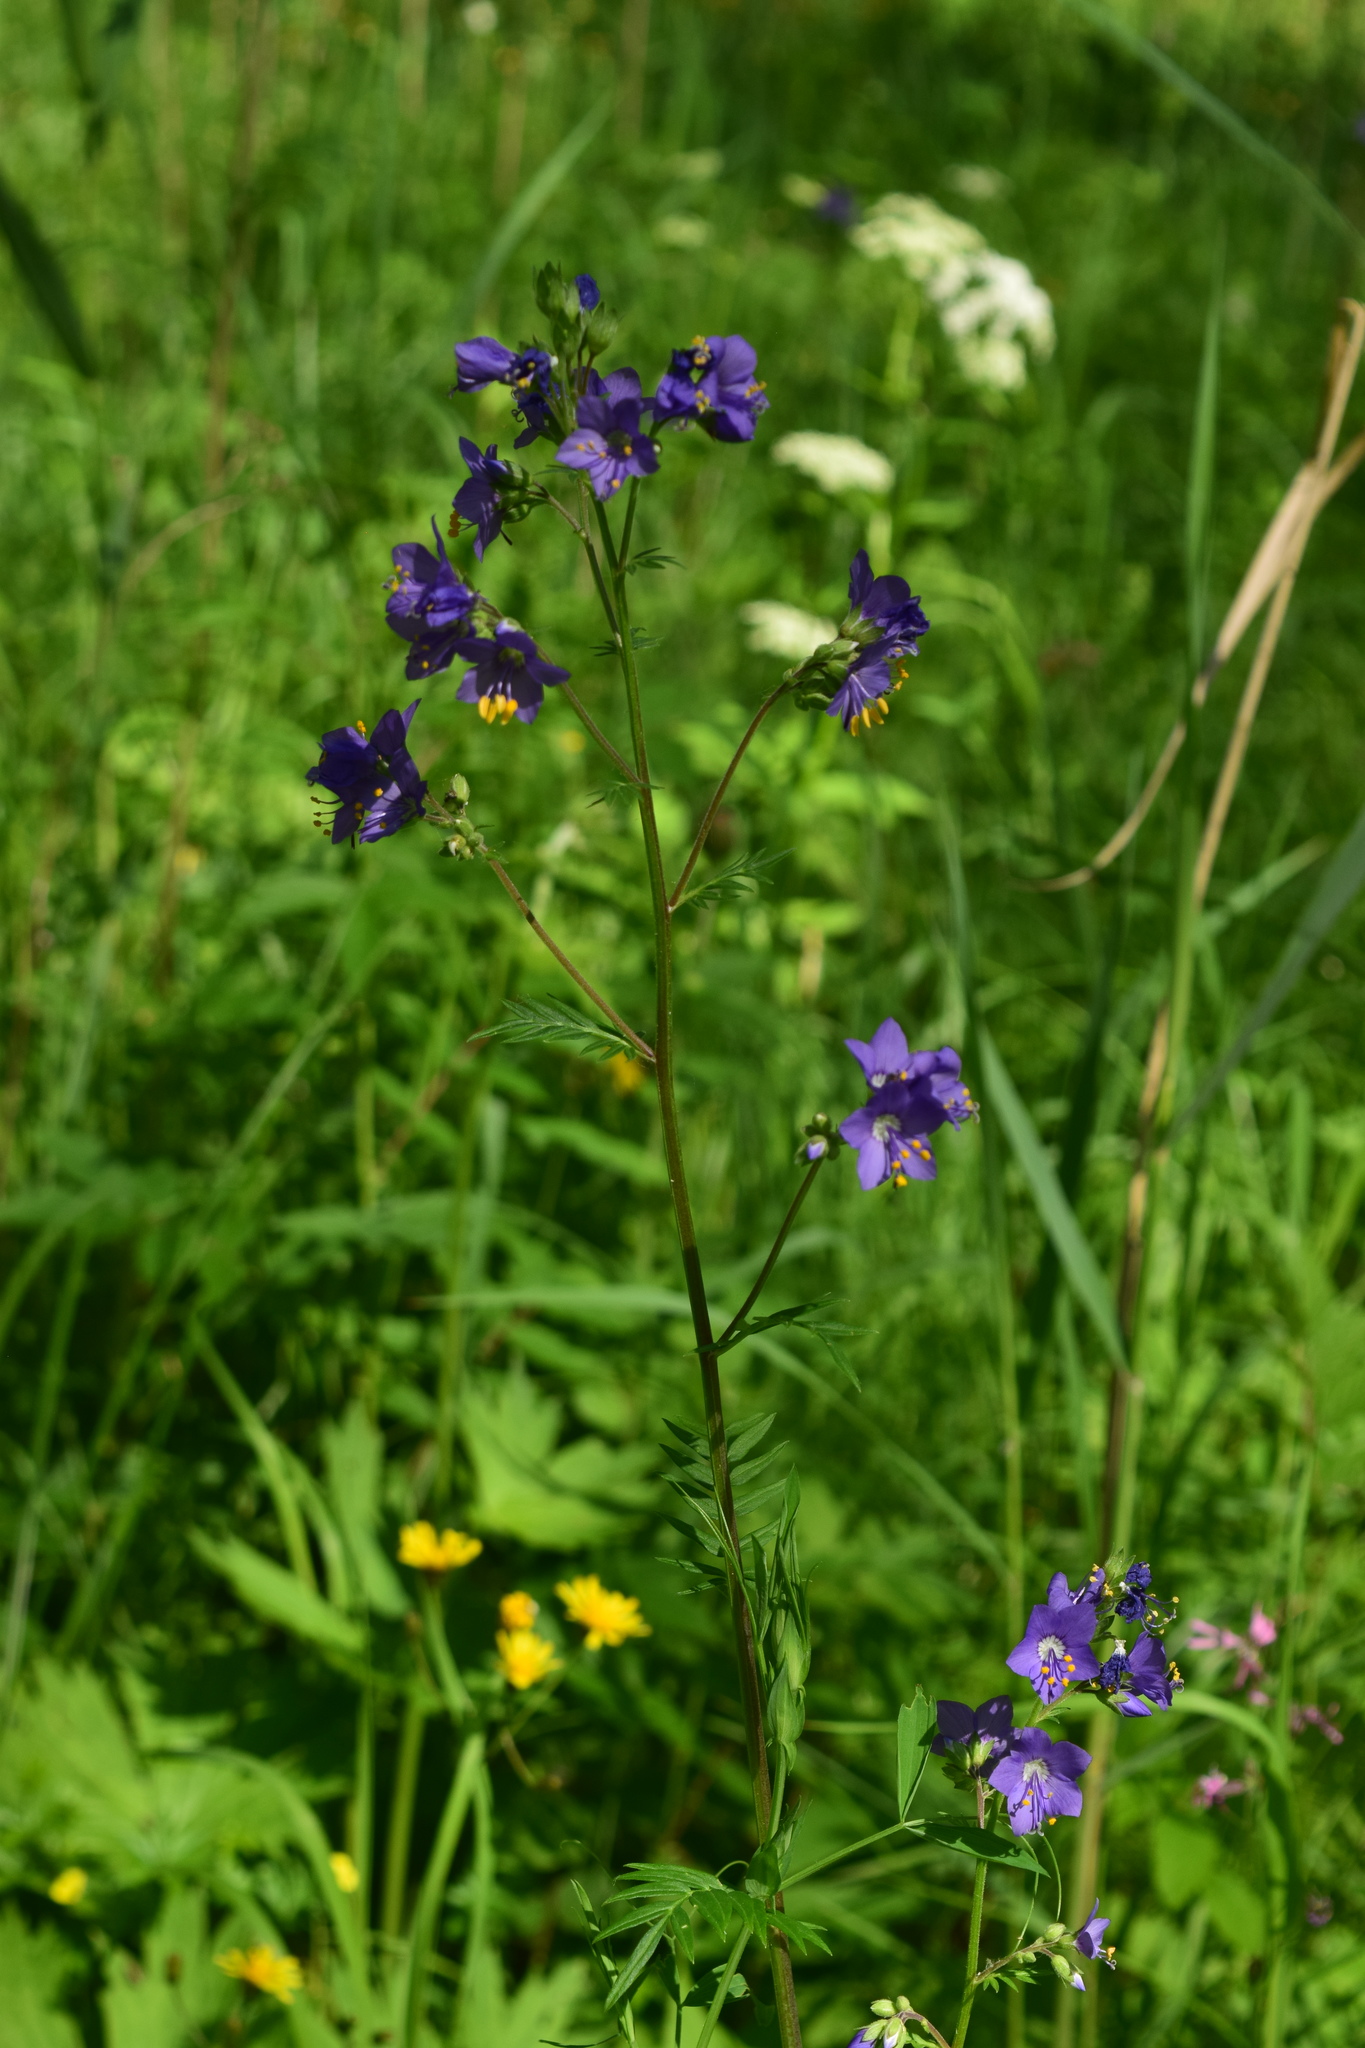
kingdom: Plantae
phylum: Tracheophyta
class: Magnoliopsida
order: Ericales
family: Polemoniaceae
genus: Polemonium
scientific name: Polemonium caeruleum
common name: Jacob's-ladder
